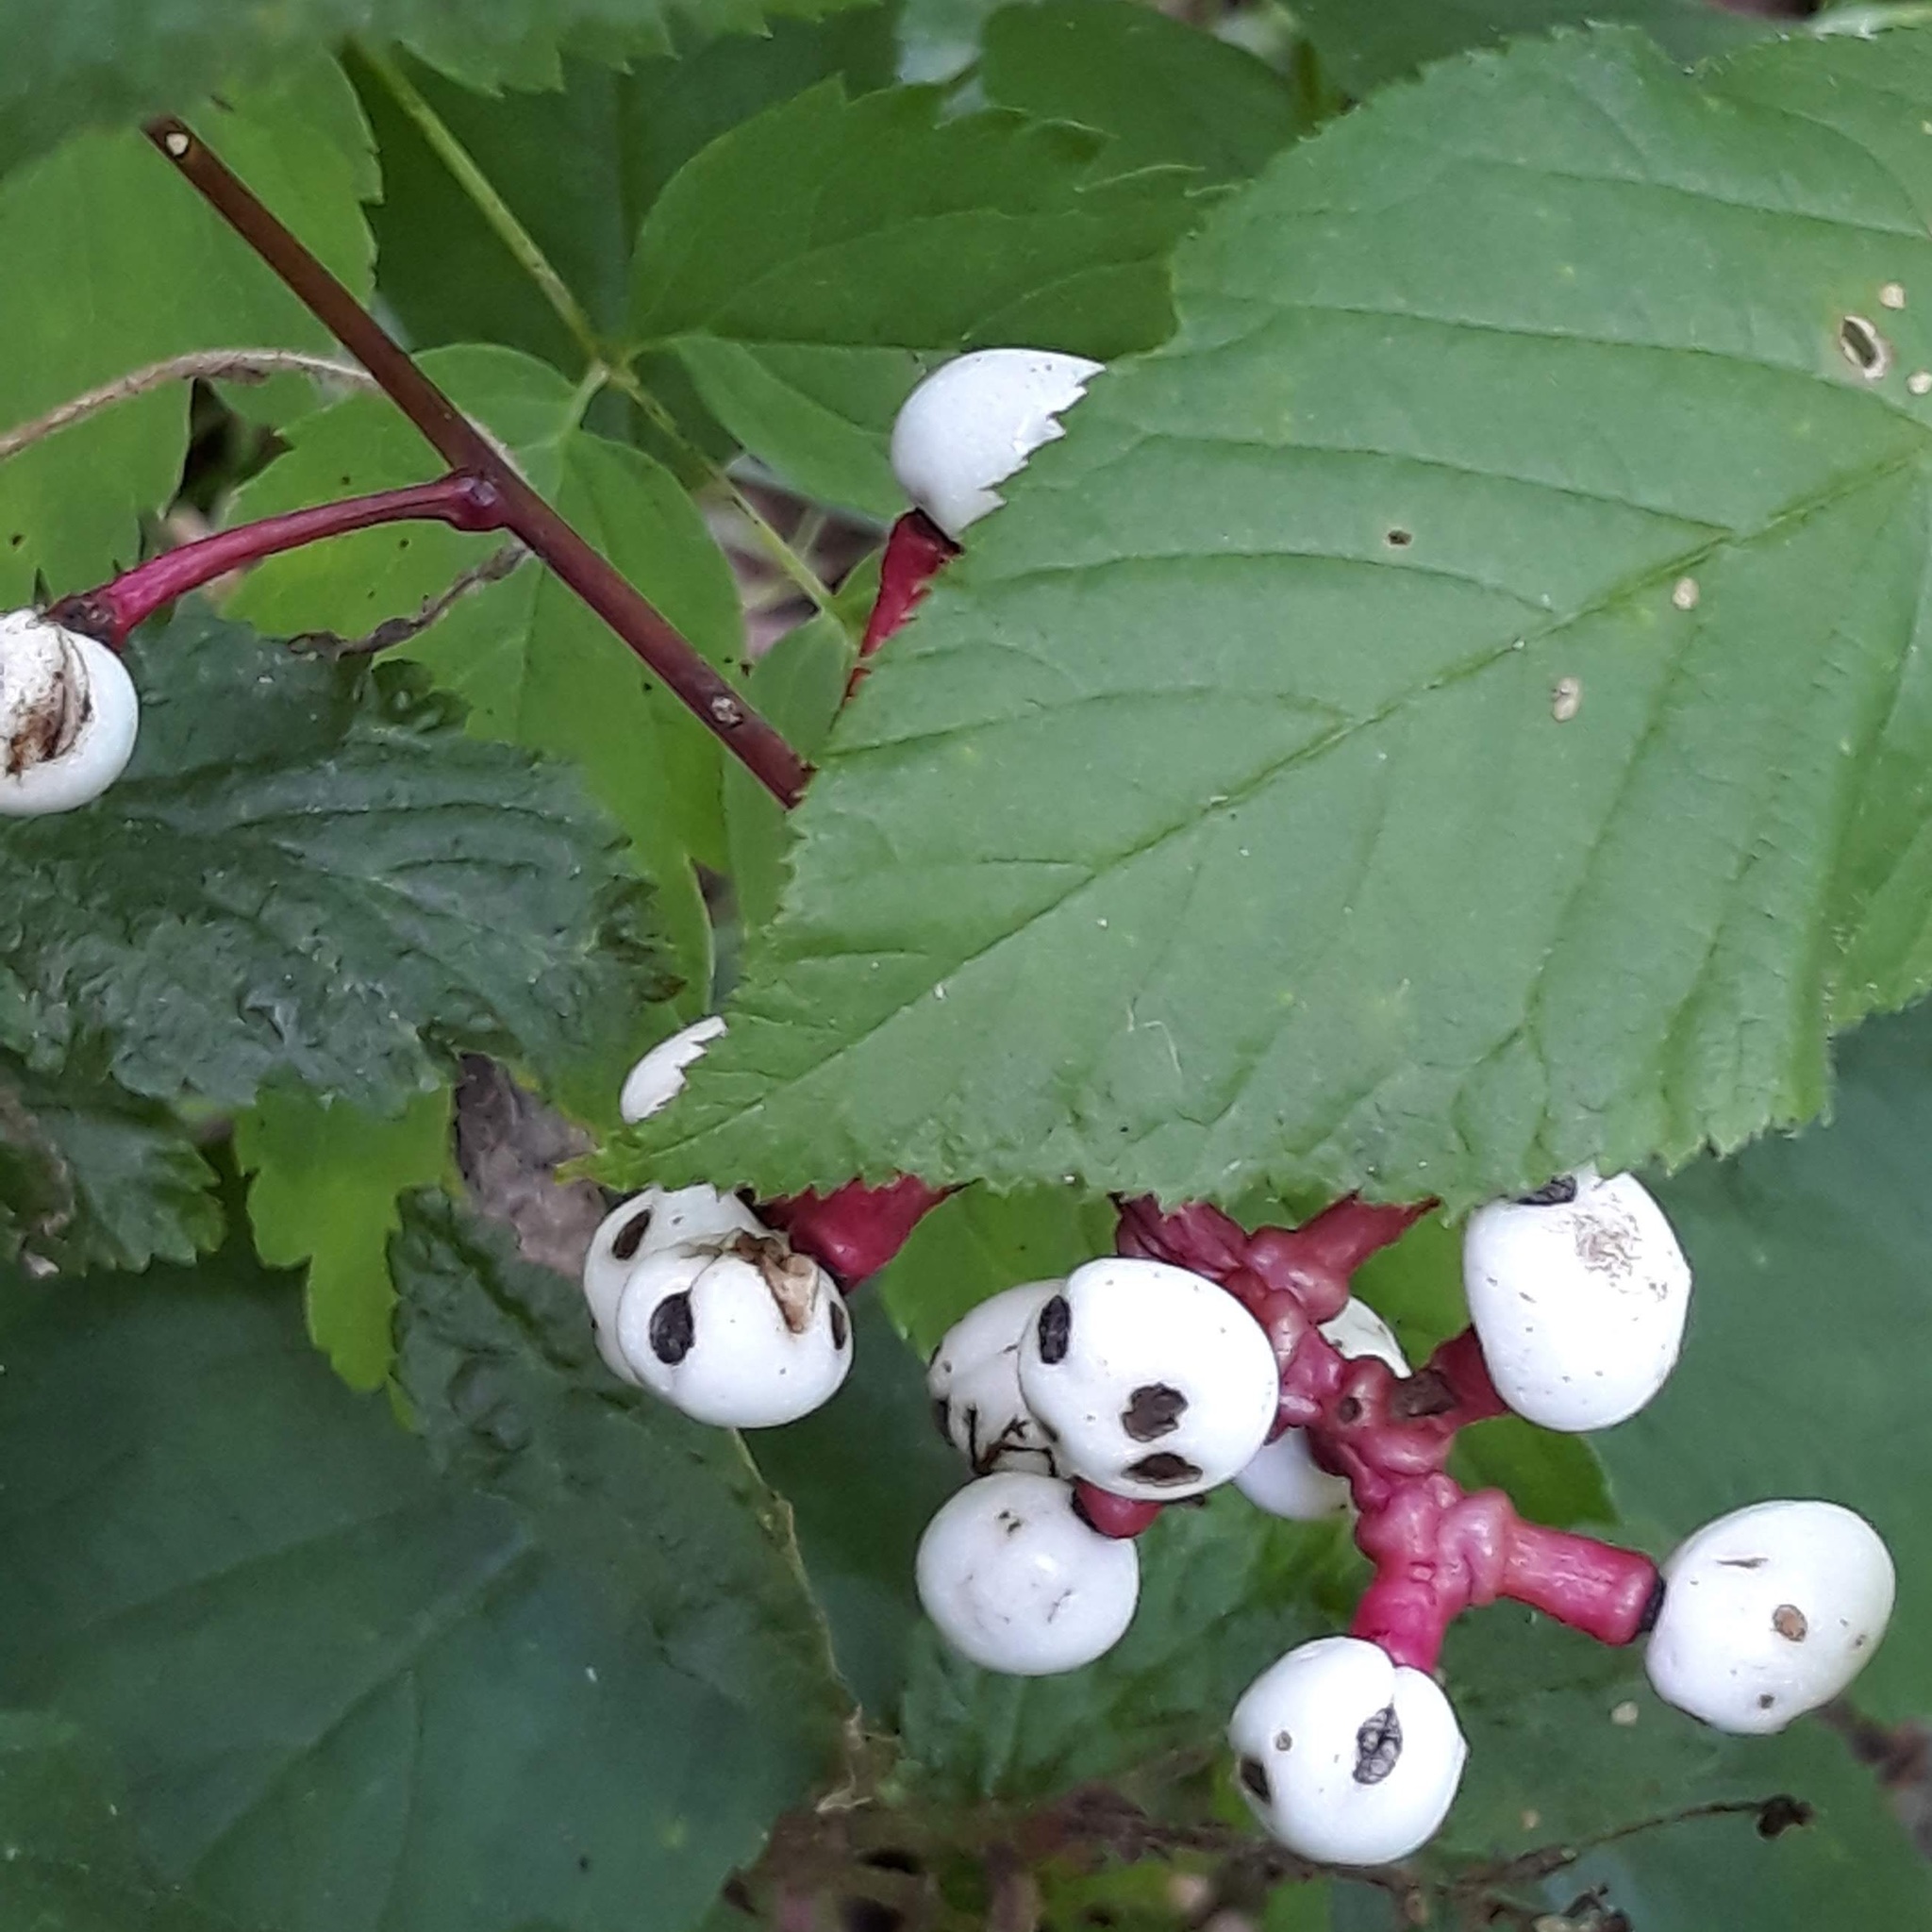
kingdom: Plantae
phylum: Tracheophyta
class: Magnoliopsida
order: Ranunculales
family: Ranunculaceae
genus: Actaea
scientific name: Actaea pachypoda
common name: Doll's-eyes
